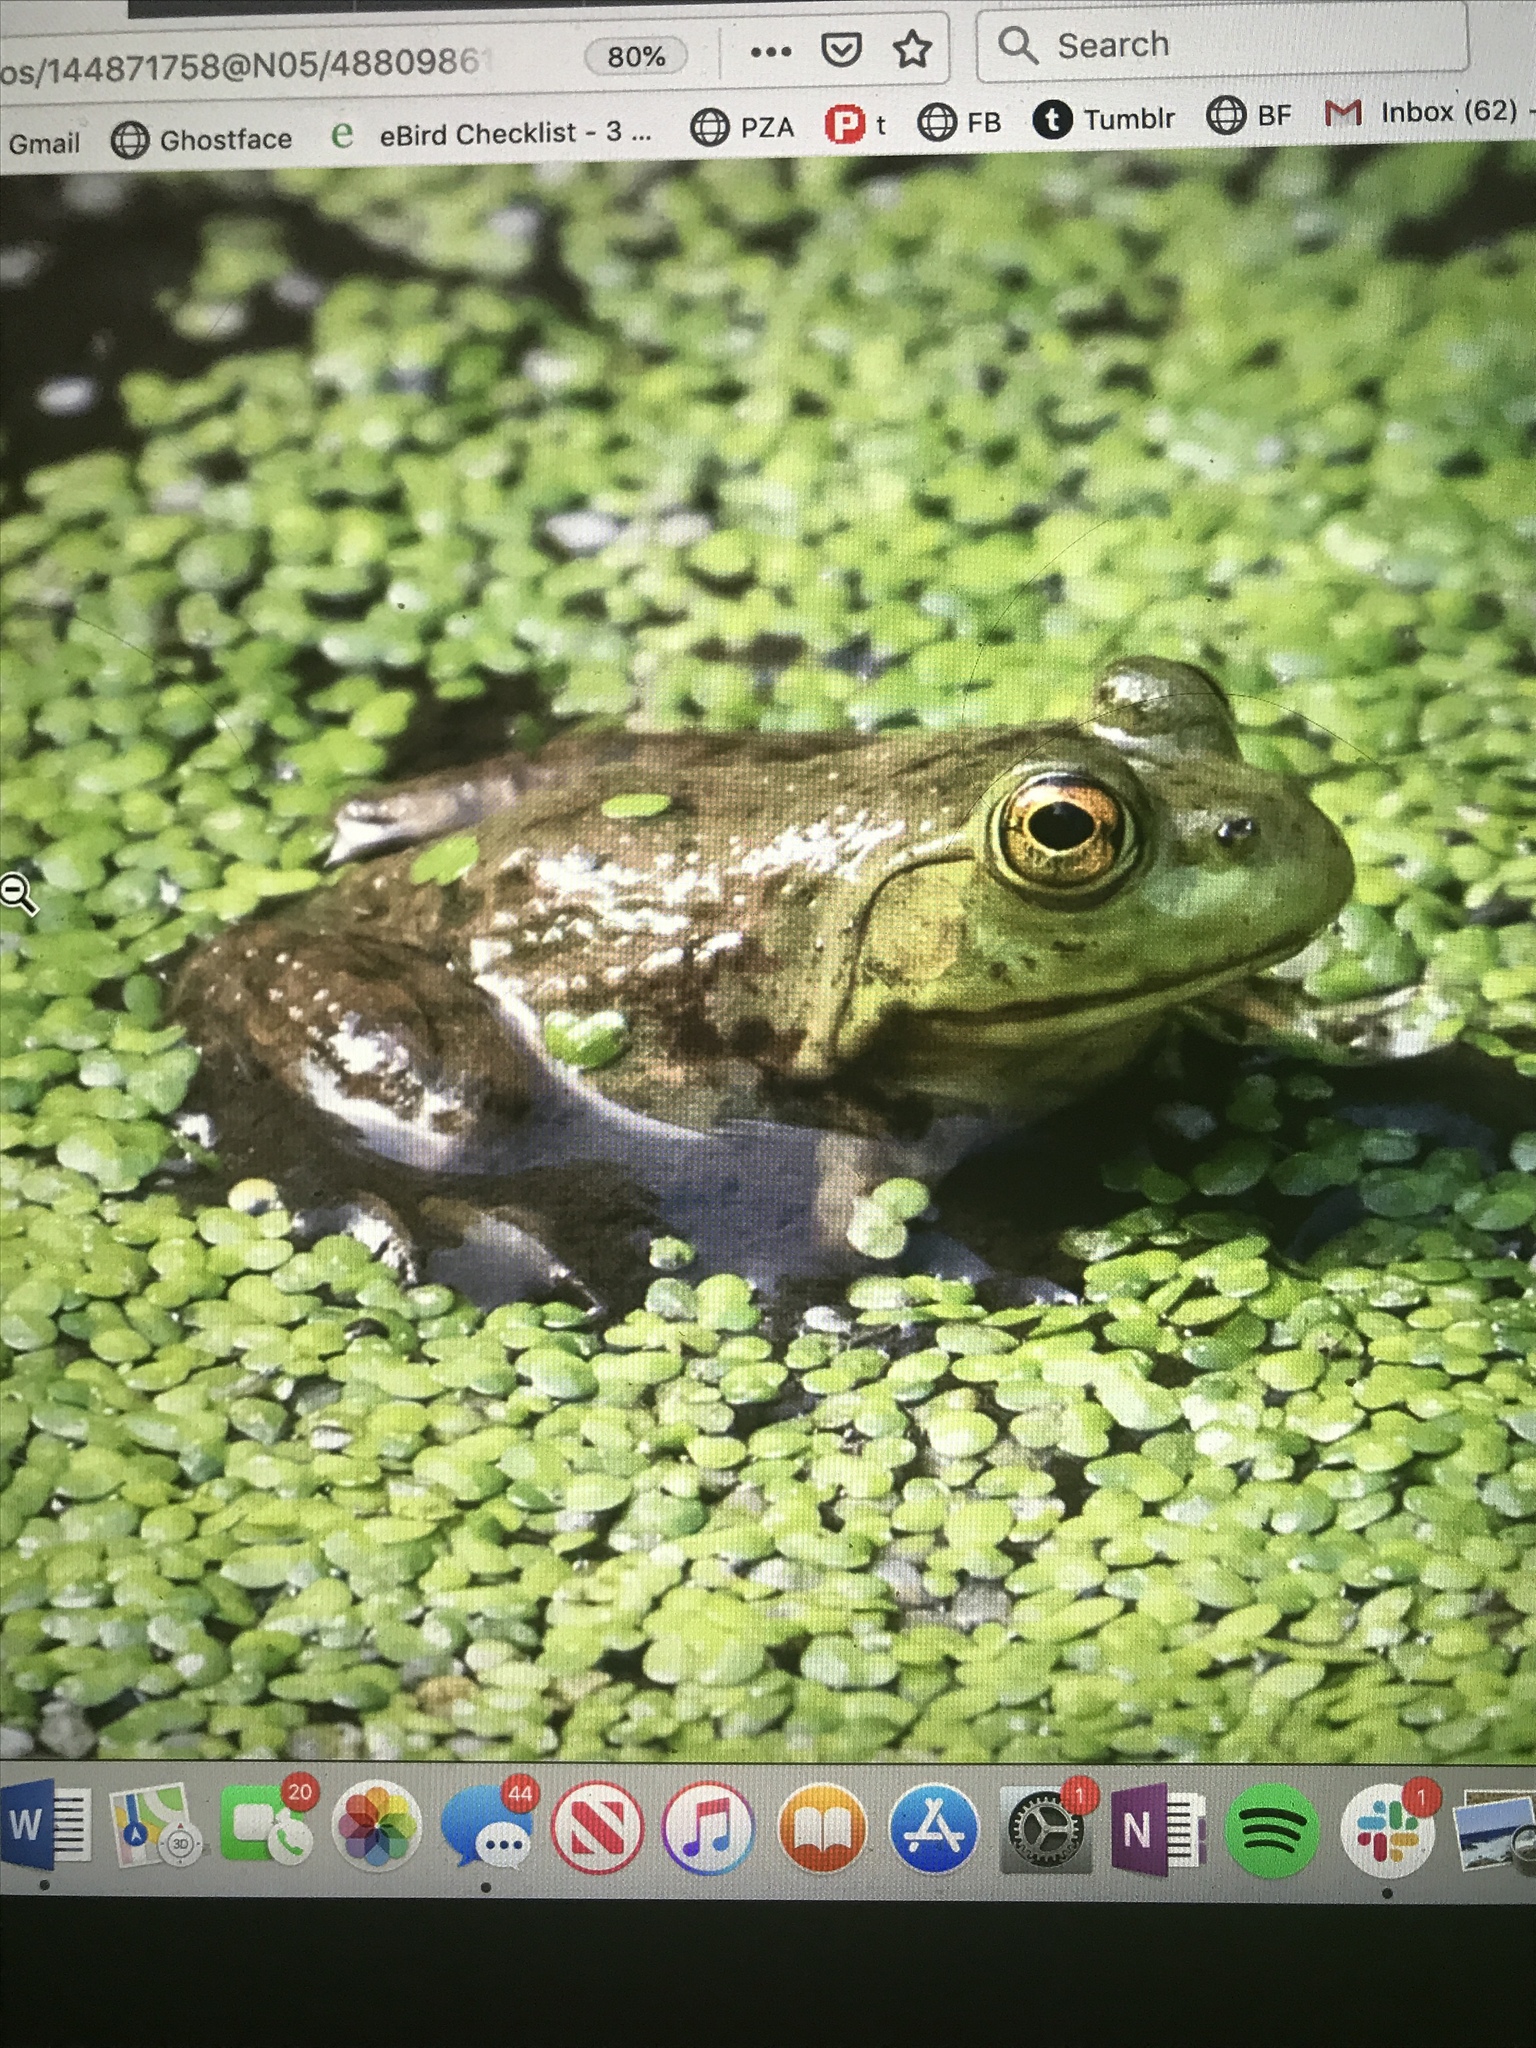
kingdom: Animalia
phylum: Chordata
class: Amphibia
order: Anura
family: Ranidae
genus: Lithobates
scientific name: Lithobates catesbeianus
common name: American bullfrog
